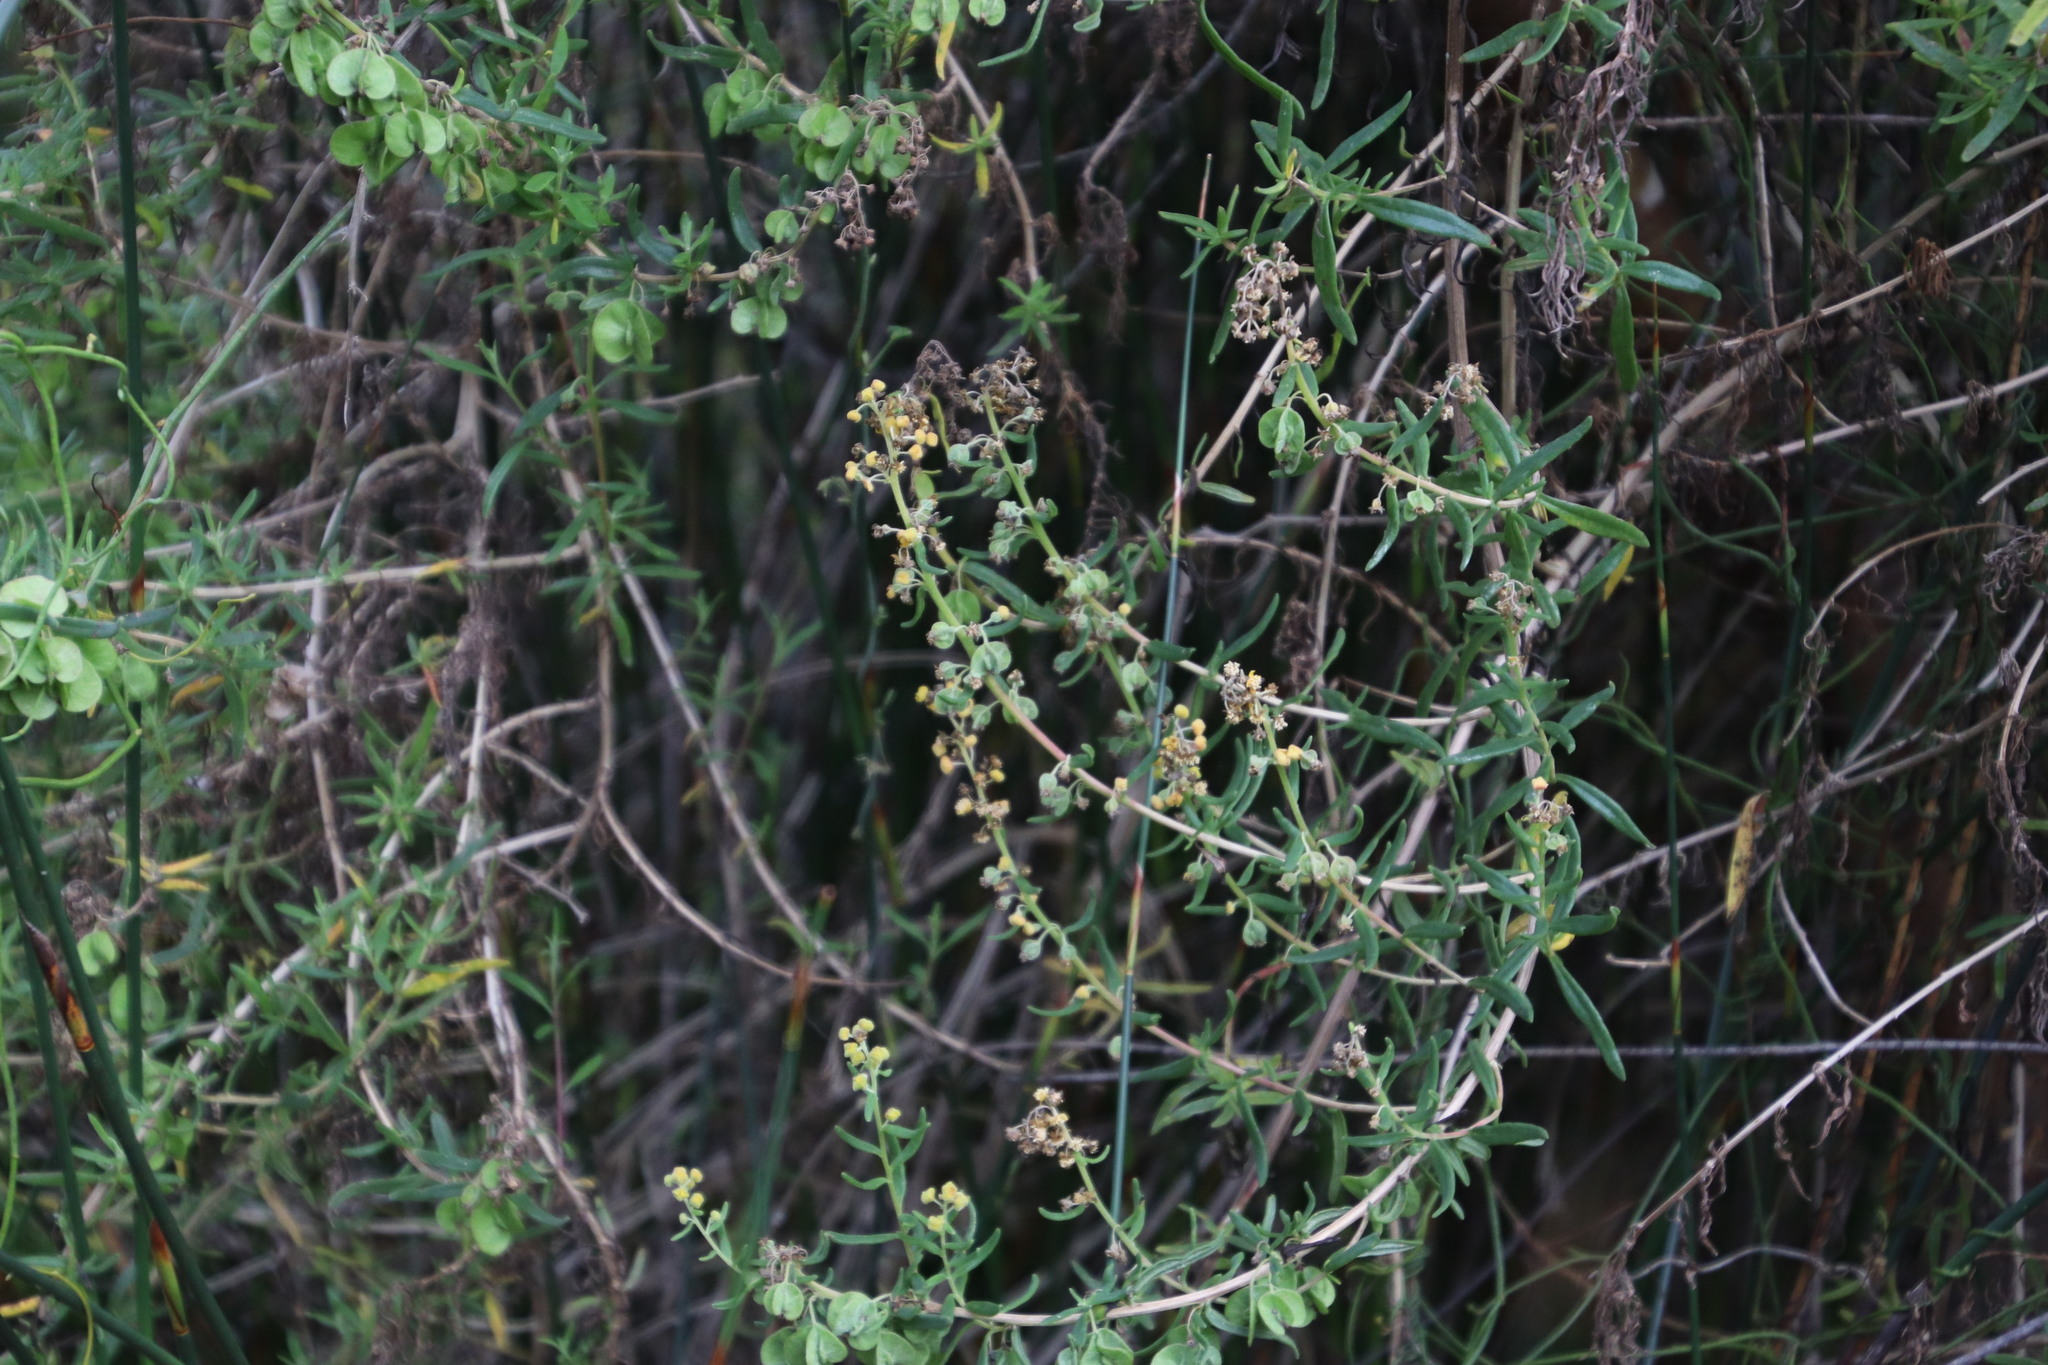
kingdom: Plantae
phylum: Tracheophyta
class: Magnoliopsida
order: Caryophyllales
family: Aizoaceae
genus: Tetragonia
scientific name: Tetragonia fruticosa
